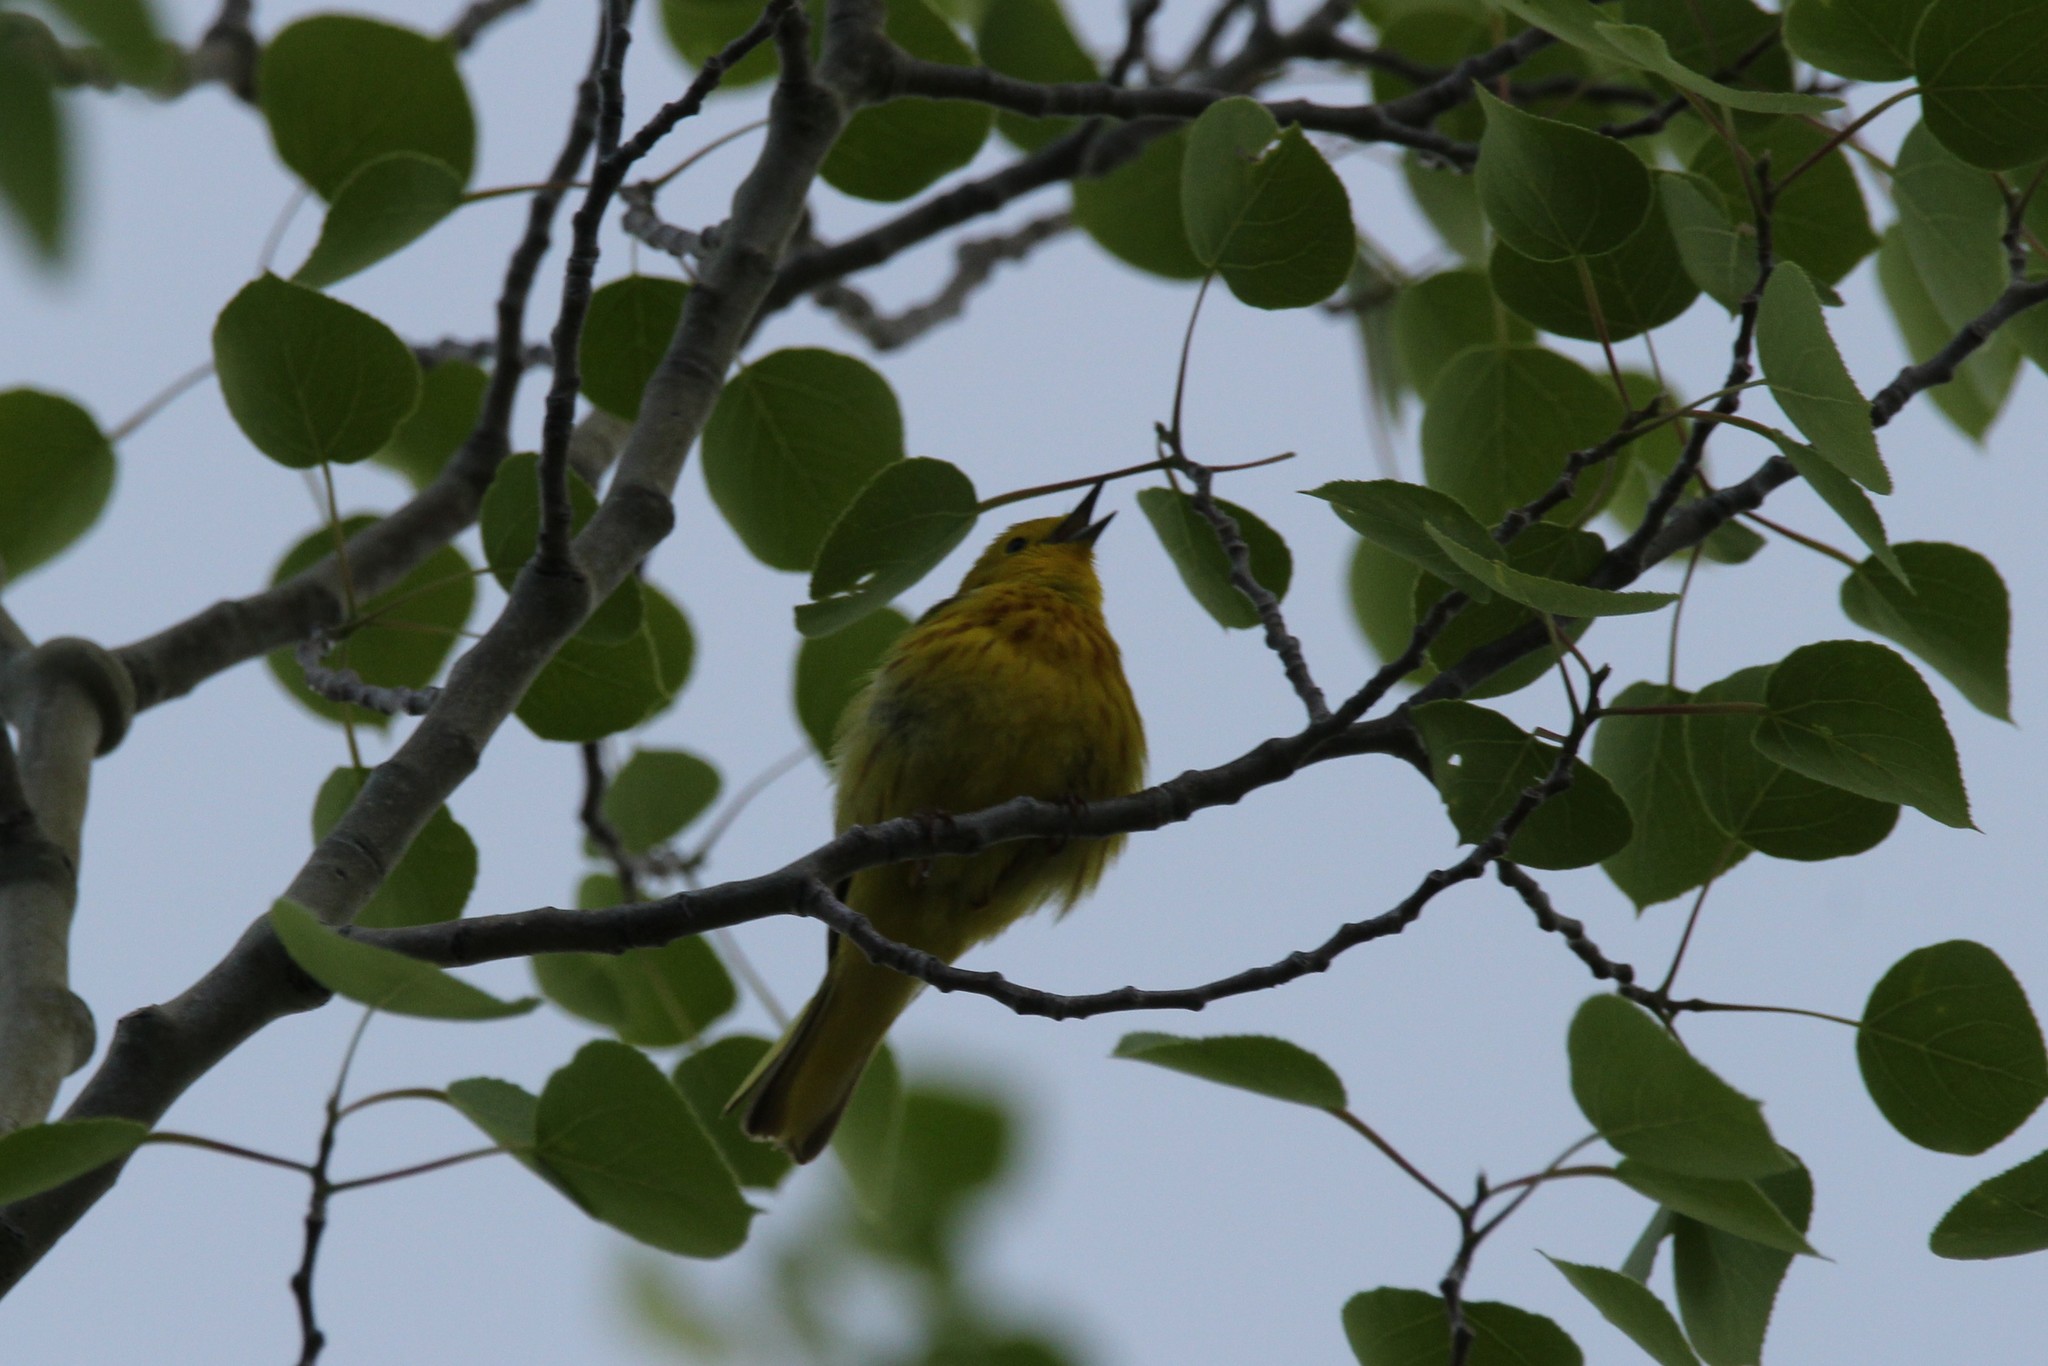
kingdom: Animalia
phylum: Chordata
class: Aves
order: Passeriformes
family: Parulidae
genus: Setophaga
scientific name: Setophaga petechia
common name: Yellow warbler
